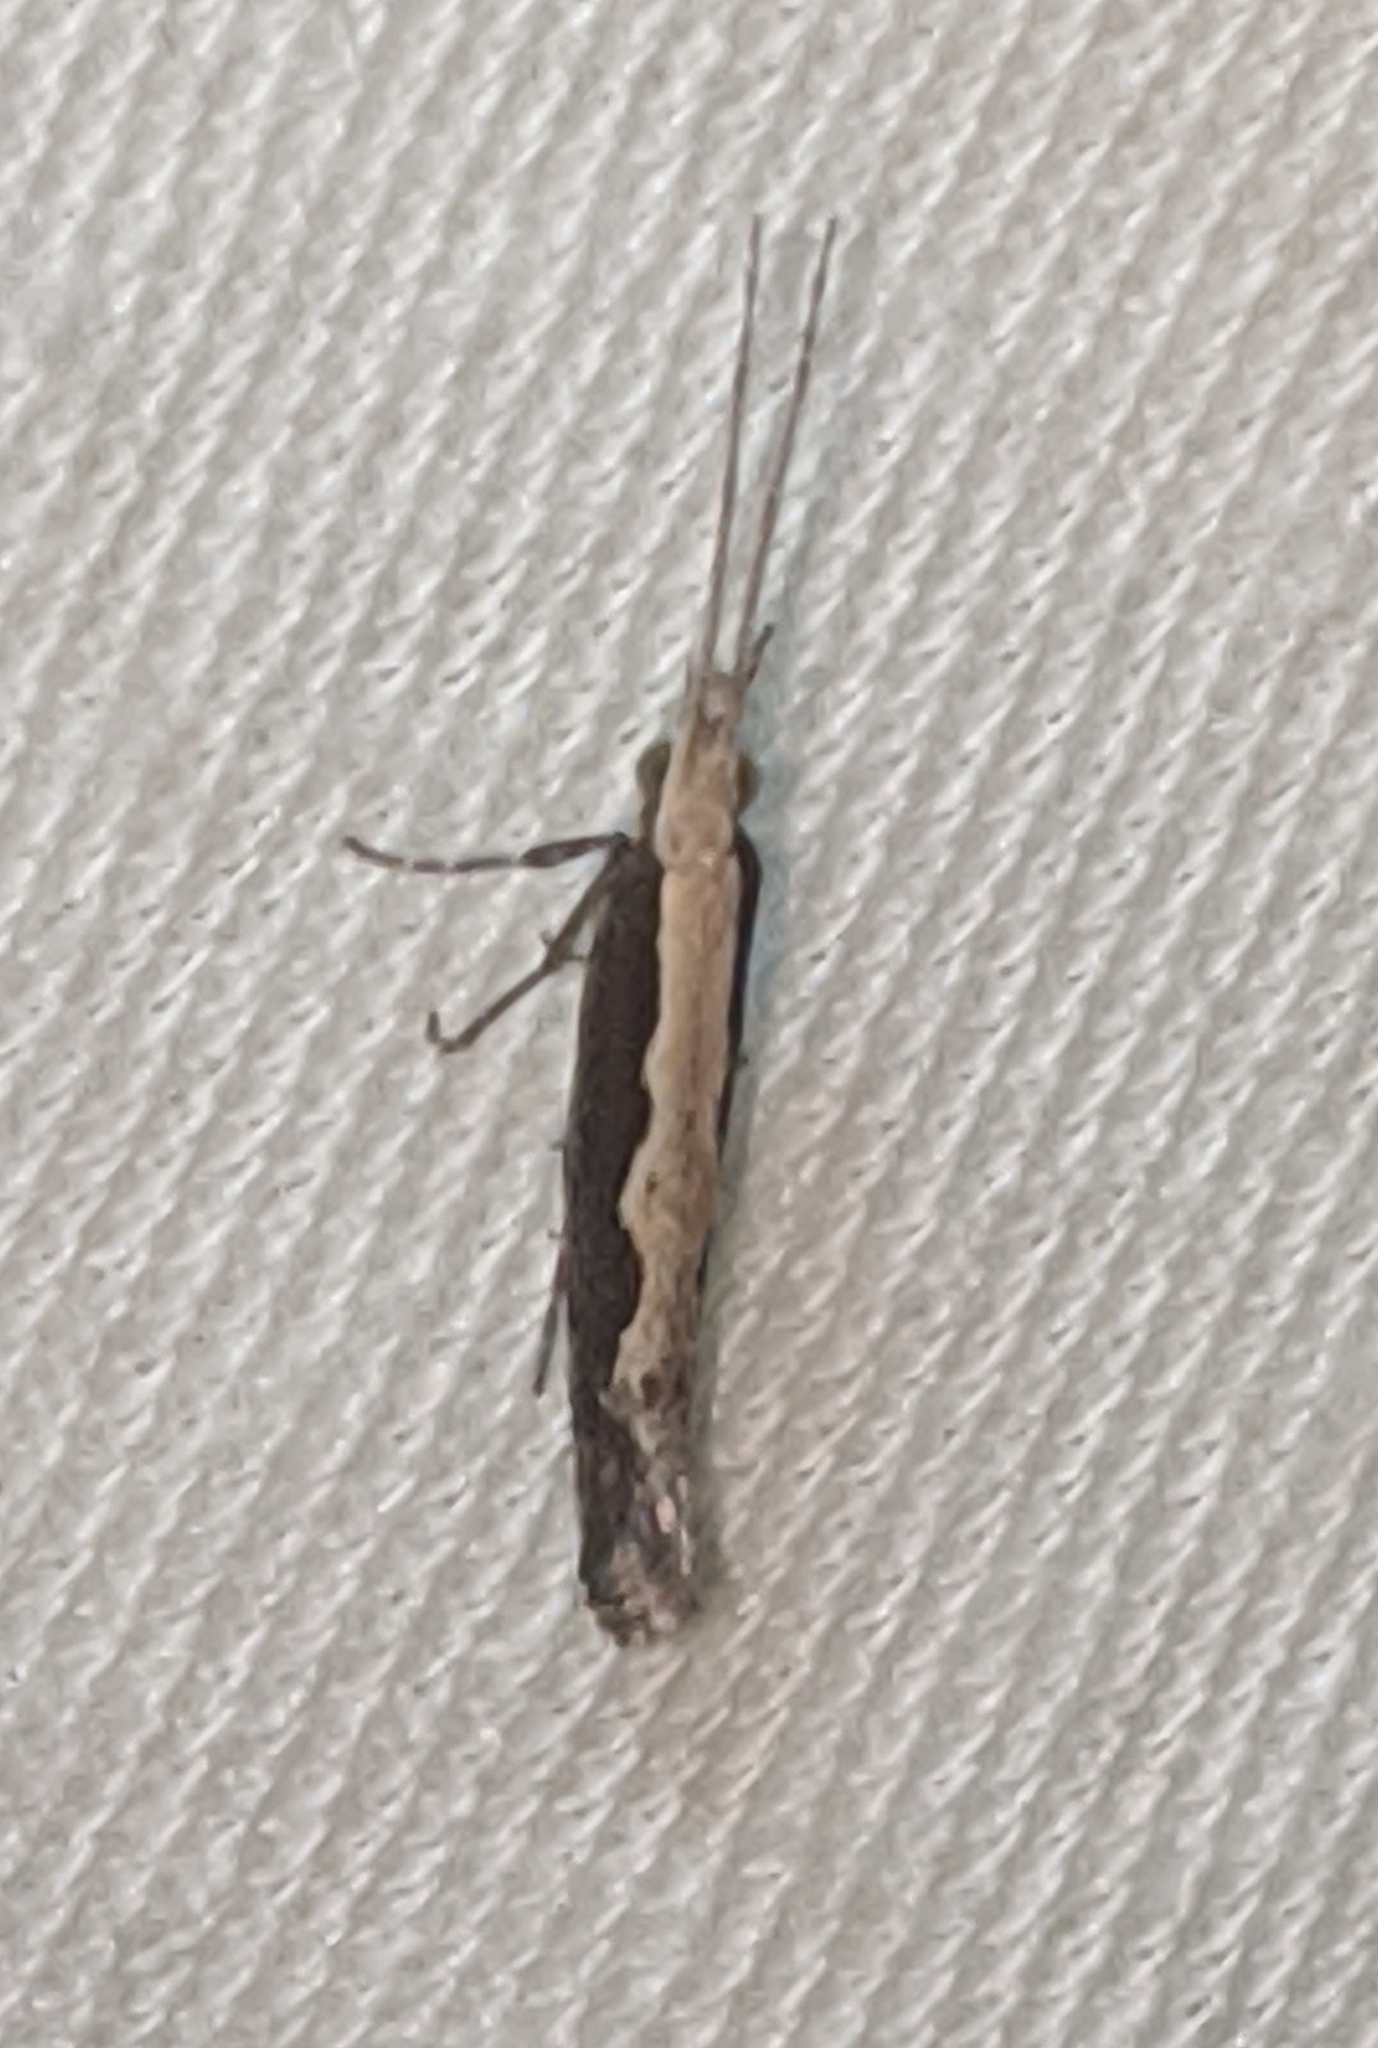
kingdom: Animalia
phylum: Arthropoda
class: Insecta
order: Lepidoptera
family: Plutellidae
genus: Plutella
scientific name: Plutella xylostella
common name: Diamond-back moth
